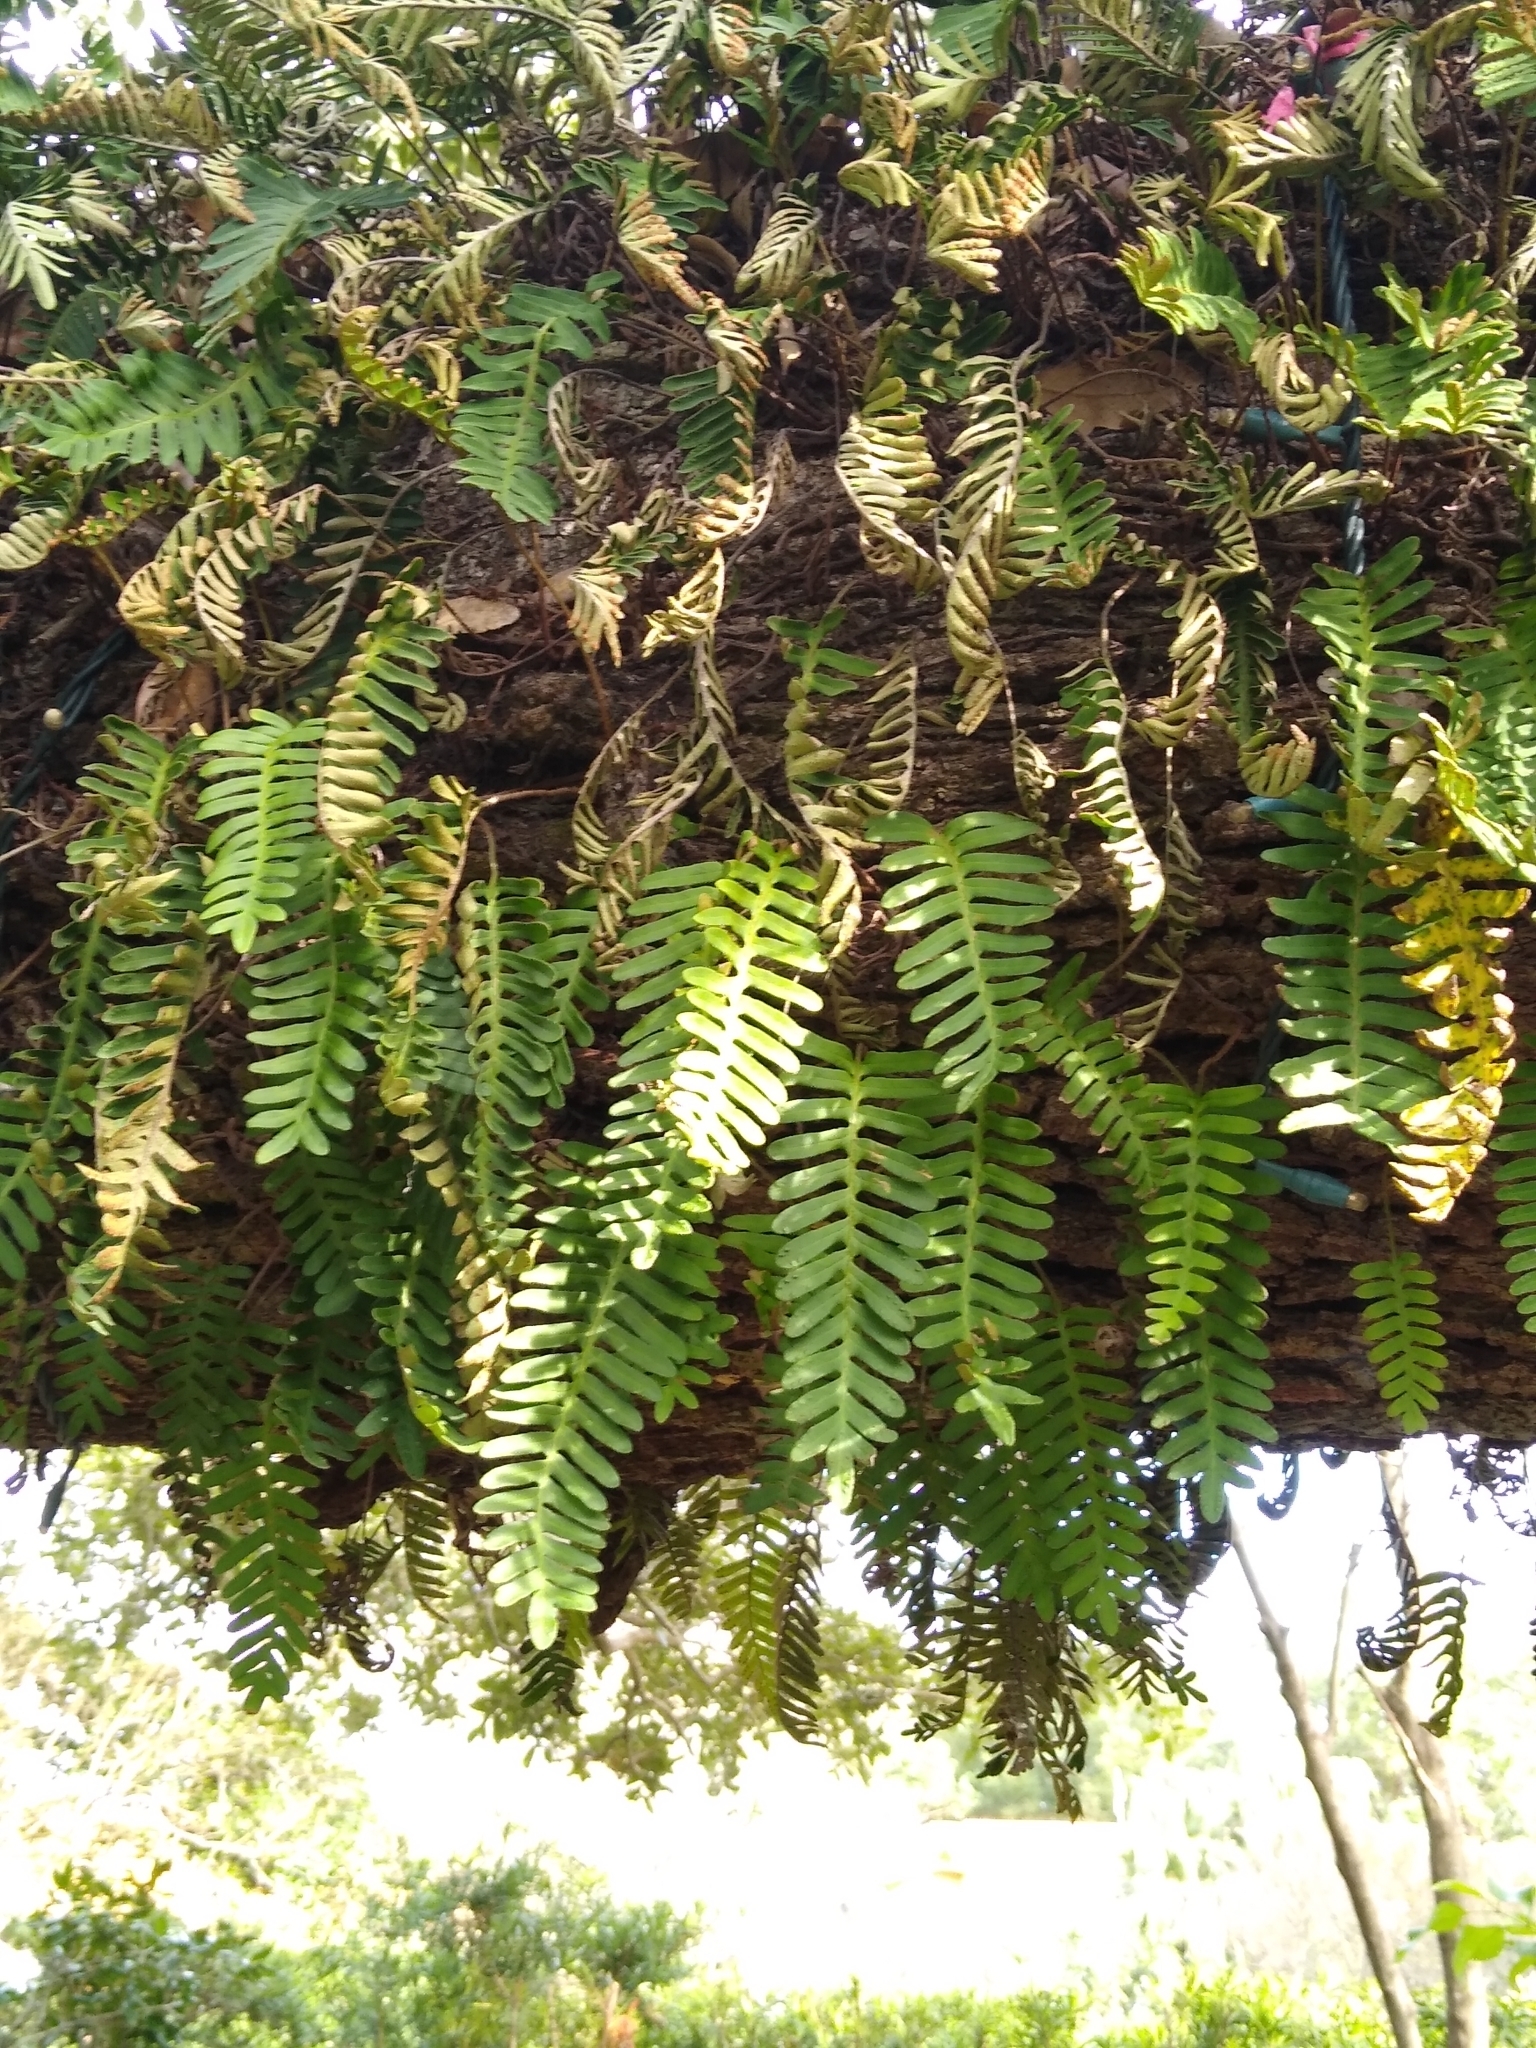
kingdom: Plantae
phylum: Tracheophyta
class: Polypodiopsida
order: Polypodiales
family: Polypodiaceae
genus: Pleopeltis
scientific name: Pleopeltis michauxiana
